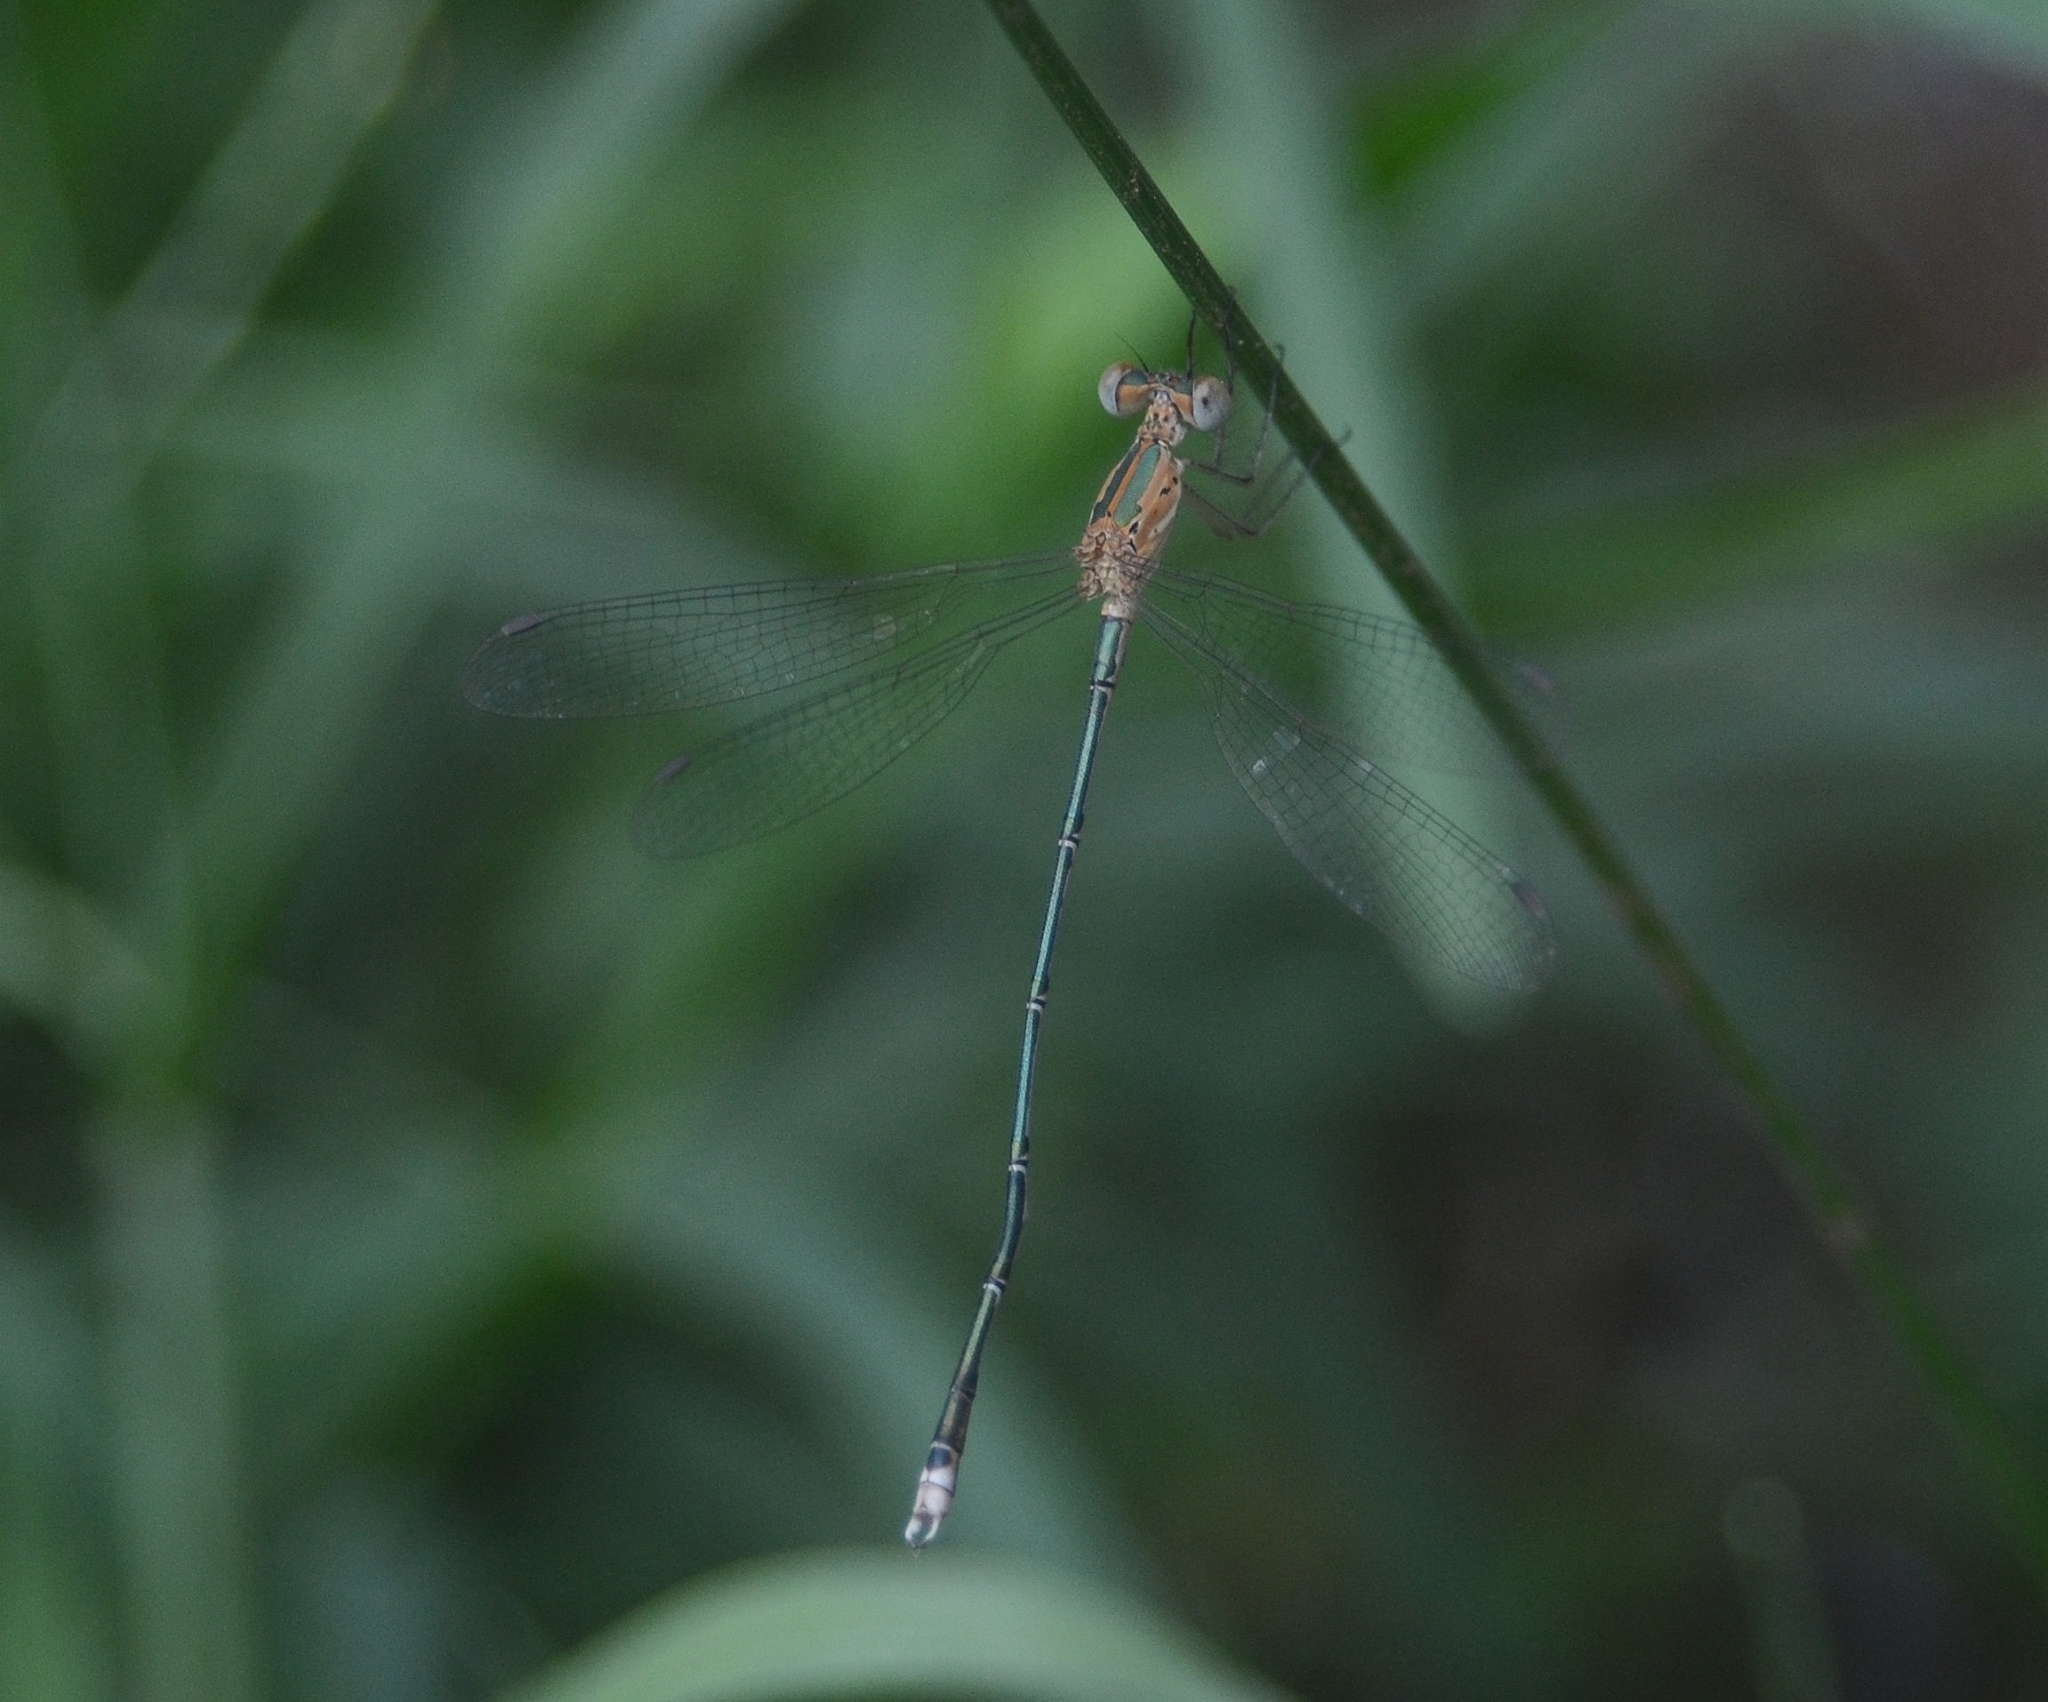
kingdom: Animalia
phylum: Arthropoda
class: Insecta
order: Odonata
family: Lestidae
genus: Lestes
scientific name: Lestes elatus
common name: Emerald spreadwing
